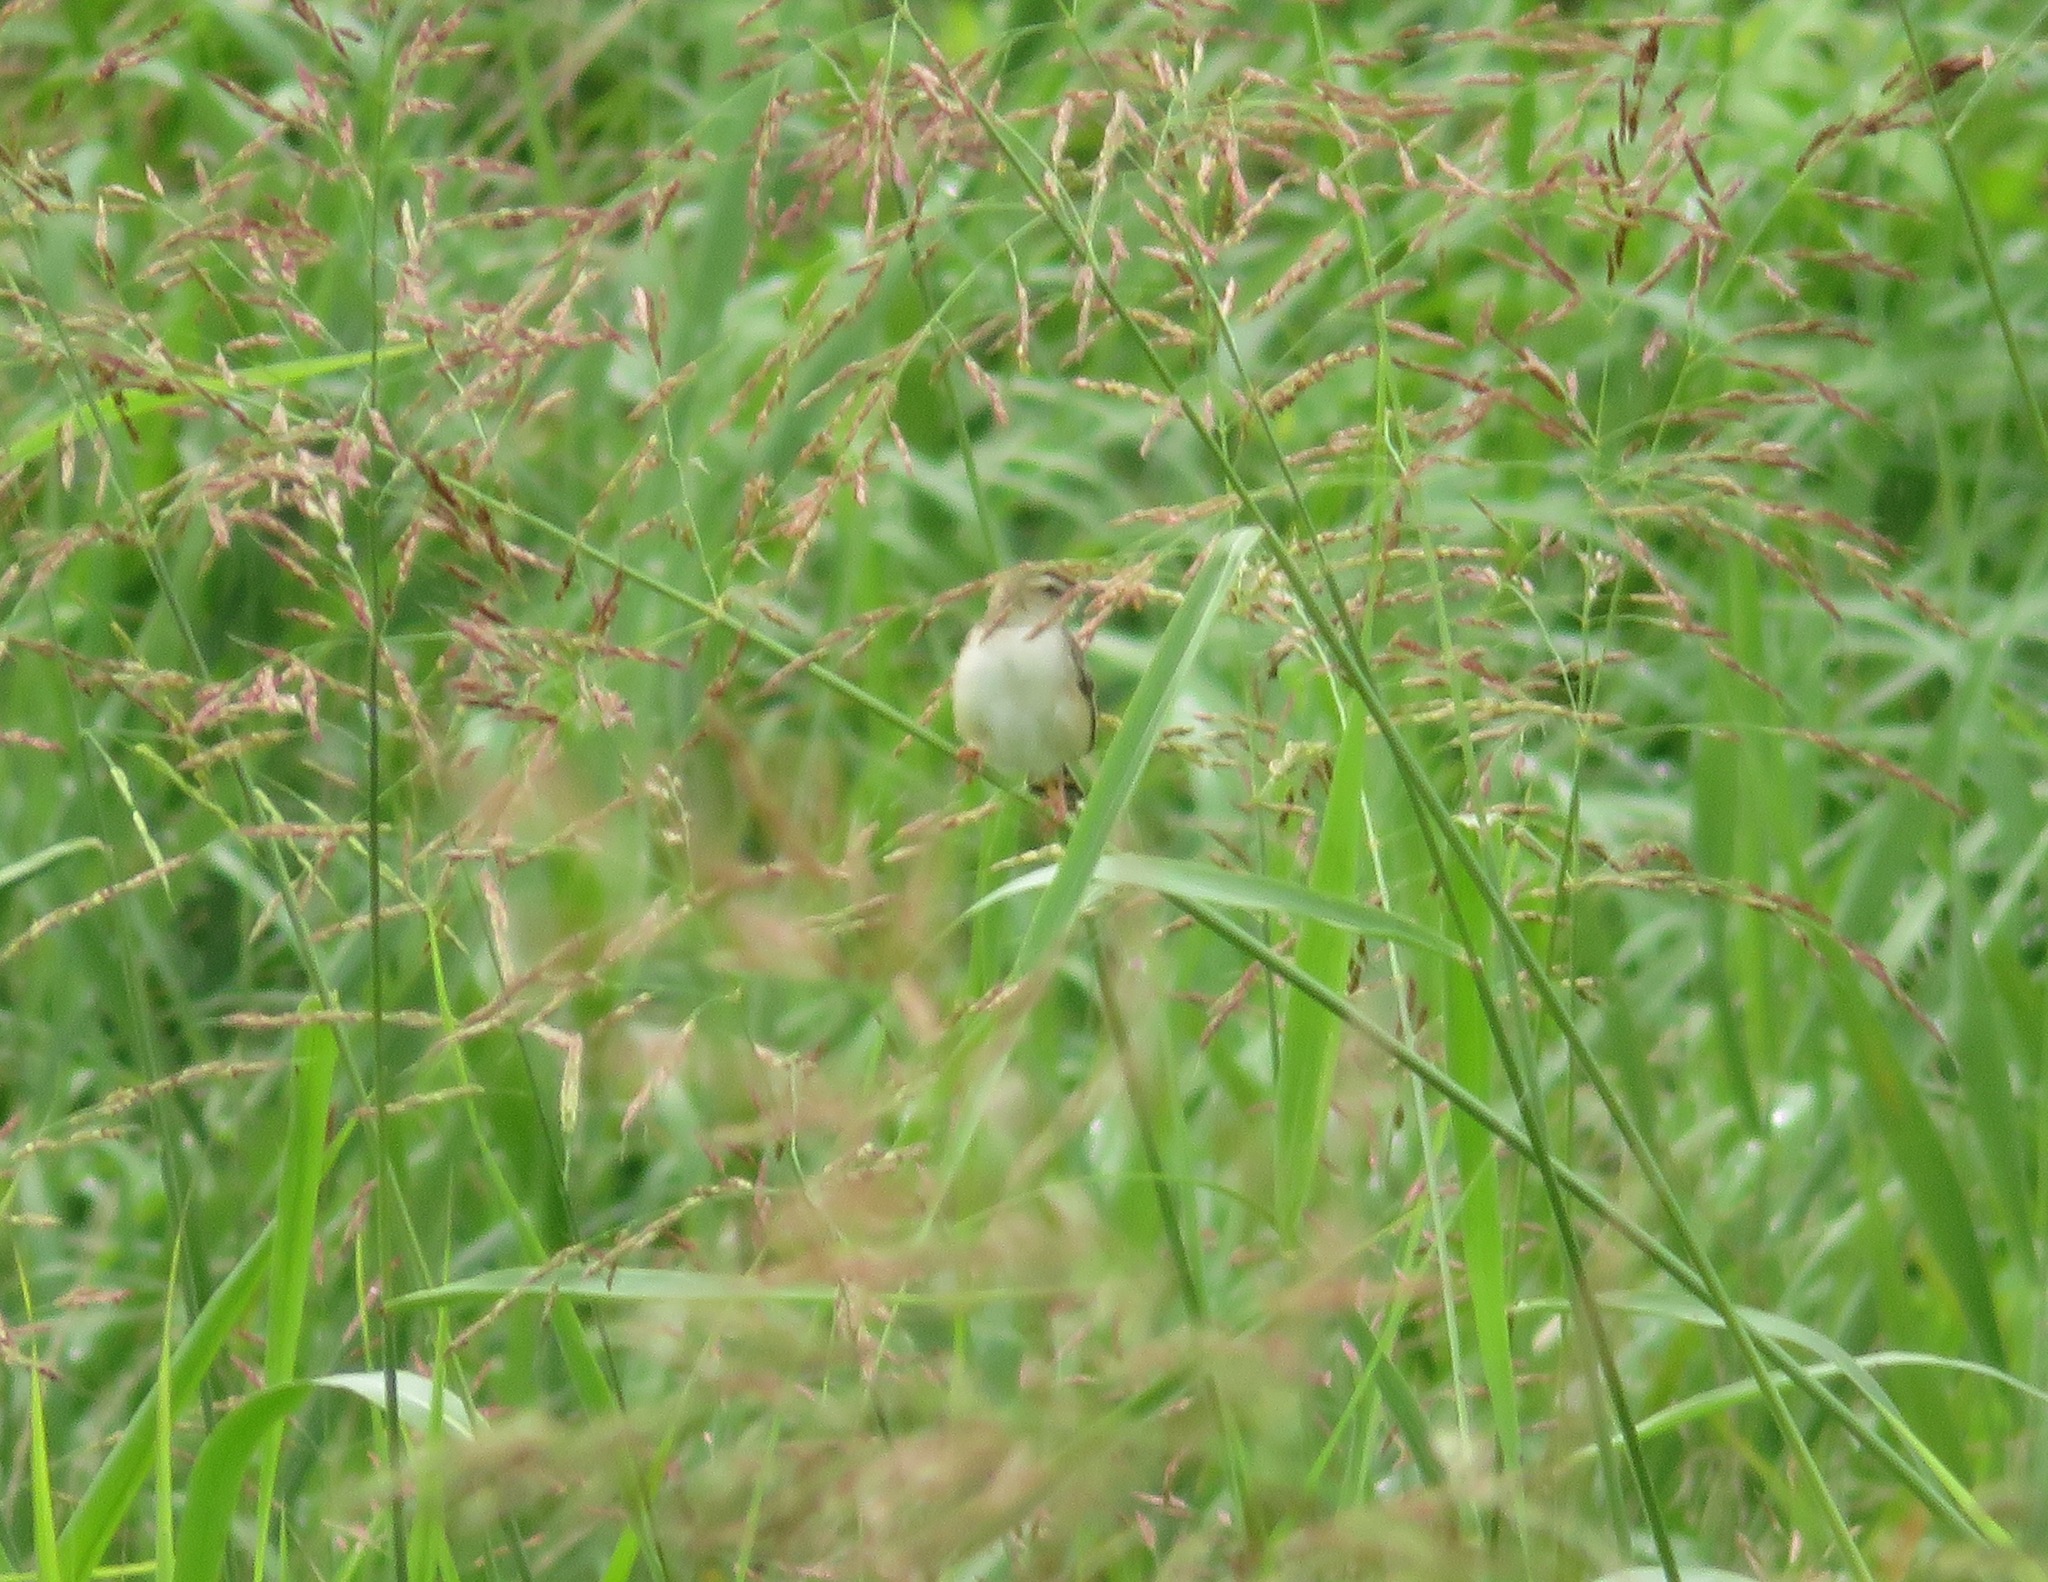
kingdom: Animalia
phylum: Chordata
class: Aves
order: Passeriformes
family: Cisticolidae
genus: Cisticola
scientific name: Cisticola juncidis
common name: Zitting cisticola
